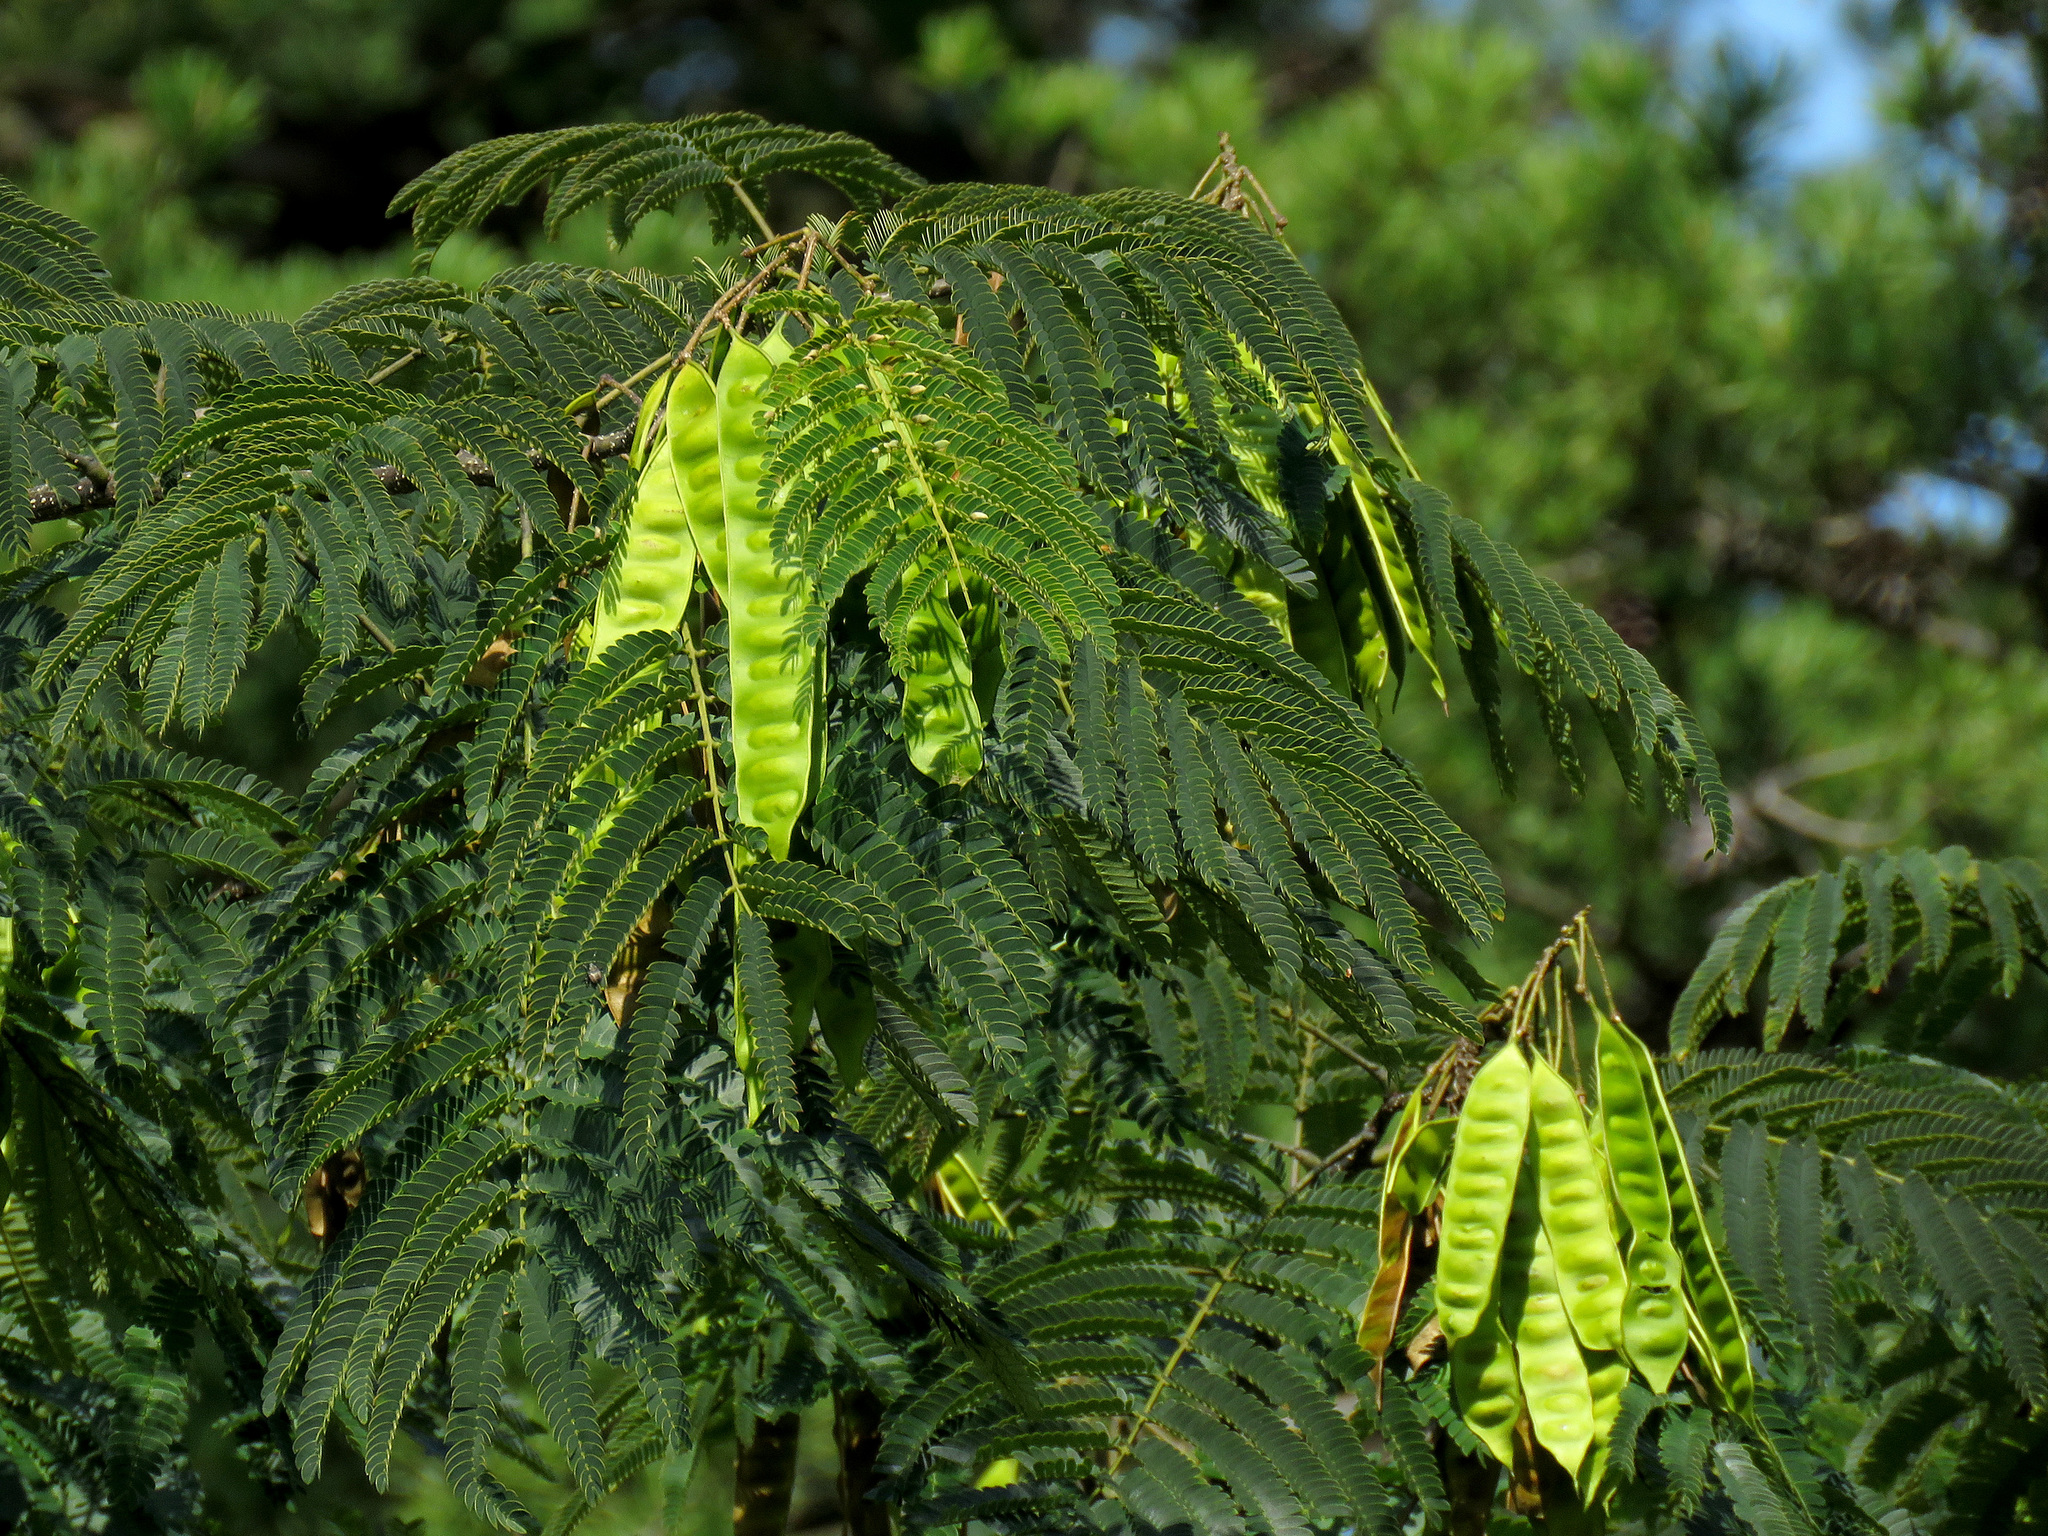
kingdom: Plantae
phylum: Tracheophyta
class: Magnoliopsida
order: Fabales
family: Fabaceae
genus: Albizia
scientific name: Albizia julibrissin
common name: Silktree
